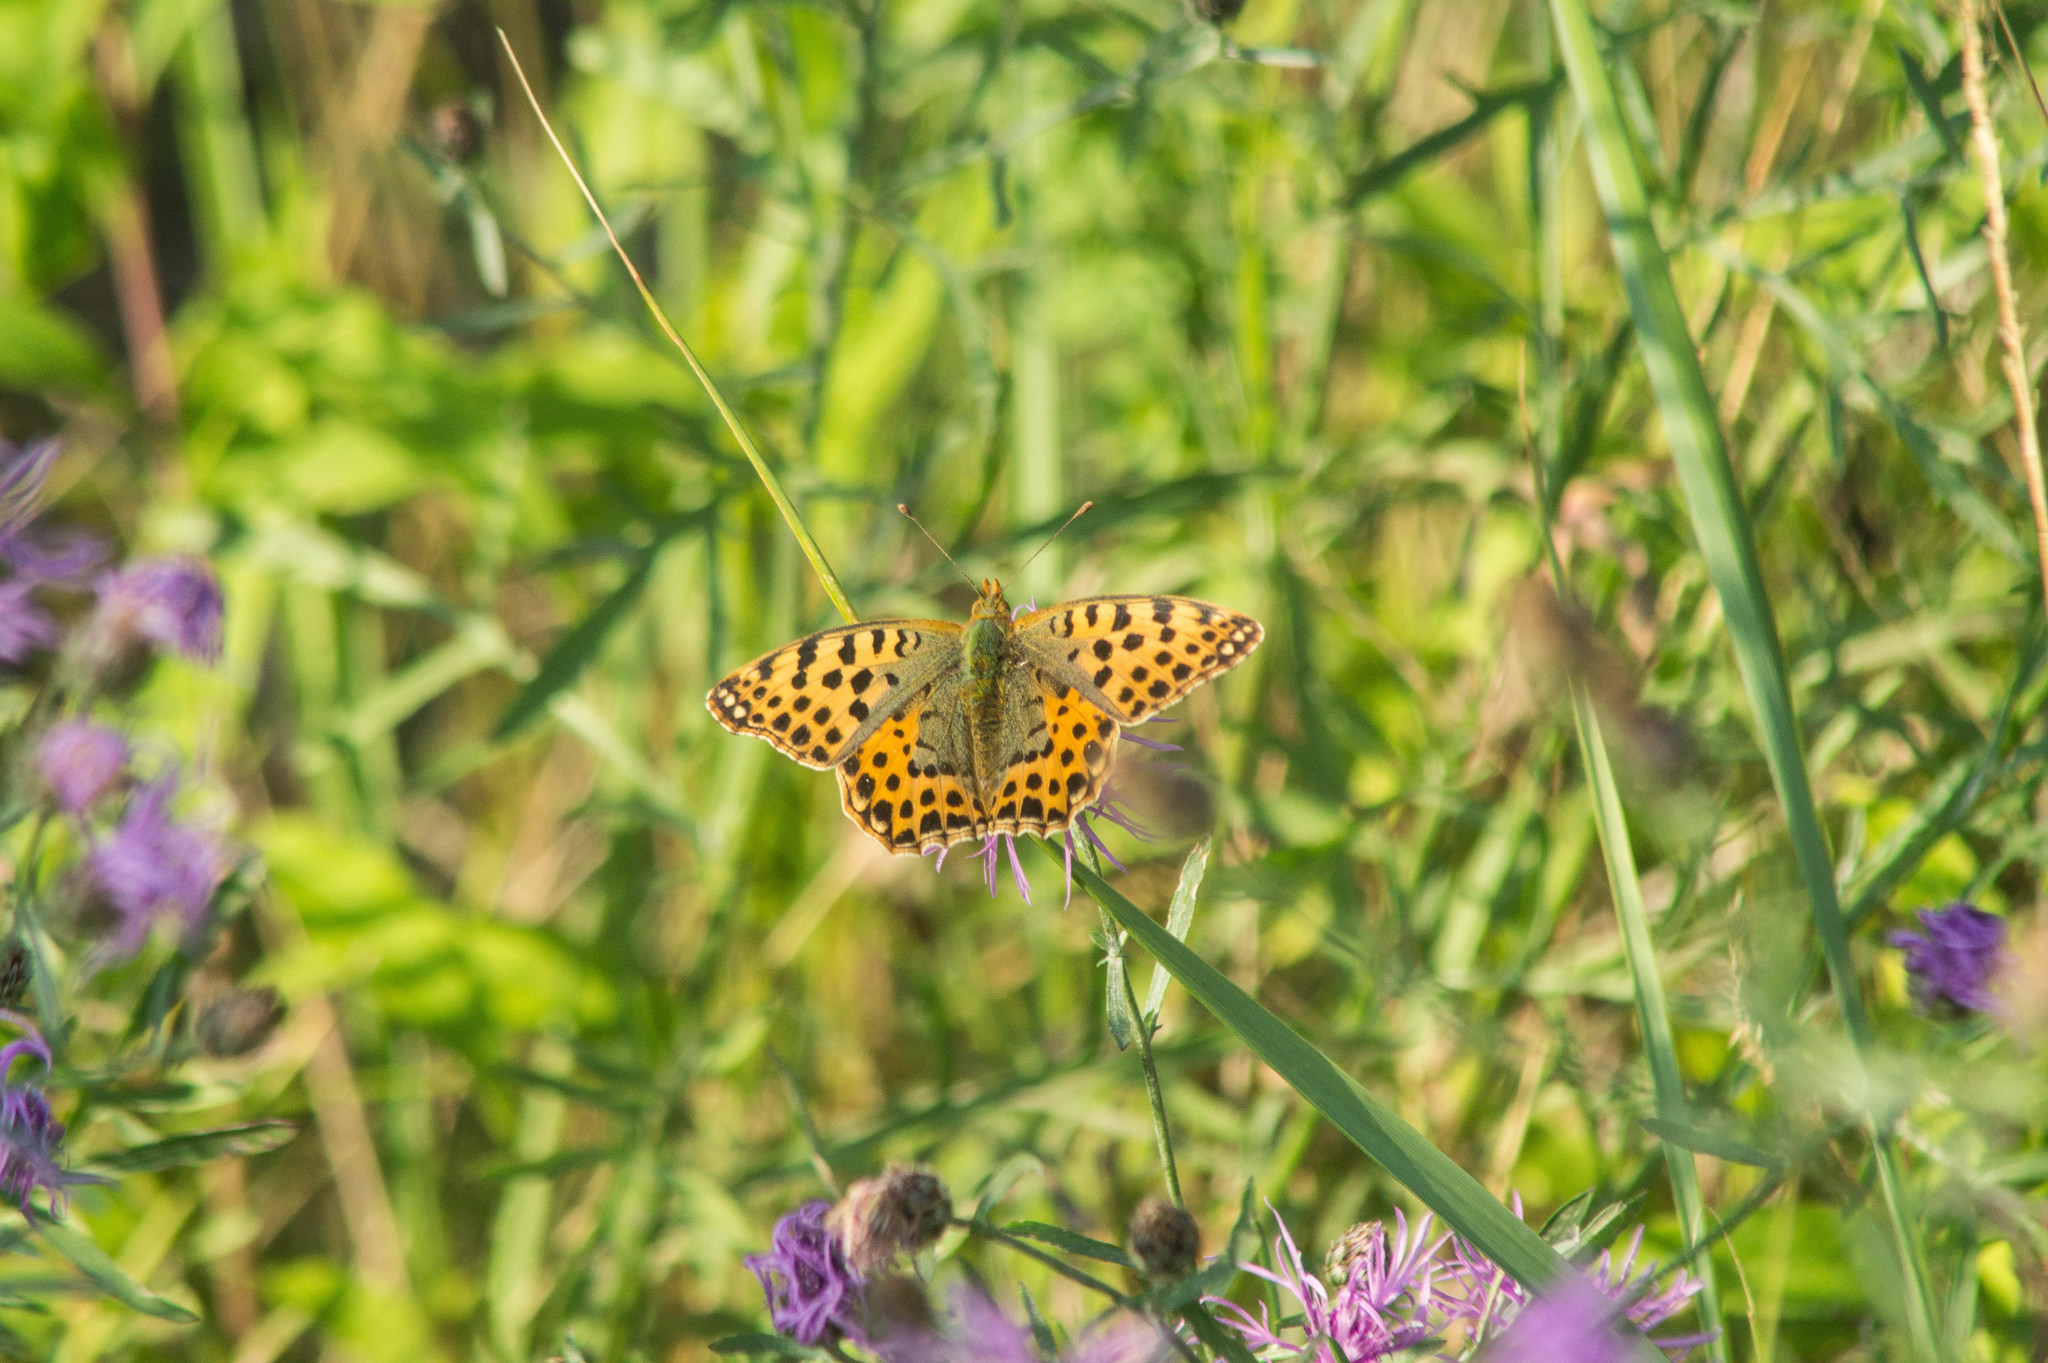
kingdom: Animalia
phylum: Arthropoda
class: Insecta
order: Lepidoptera
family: Nymphalidae
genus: Issoria
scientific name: Issoria lathonia
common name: Queen of spain fritillary
